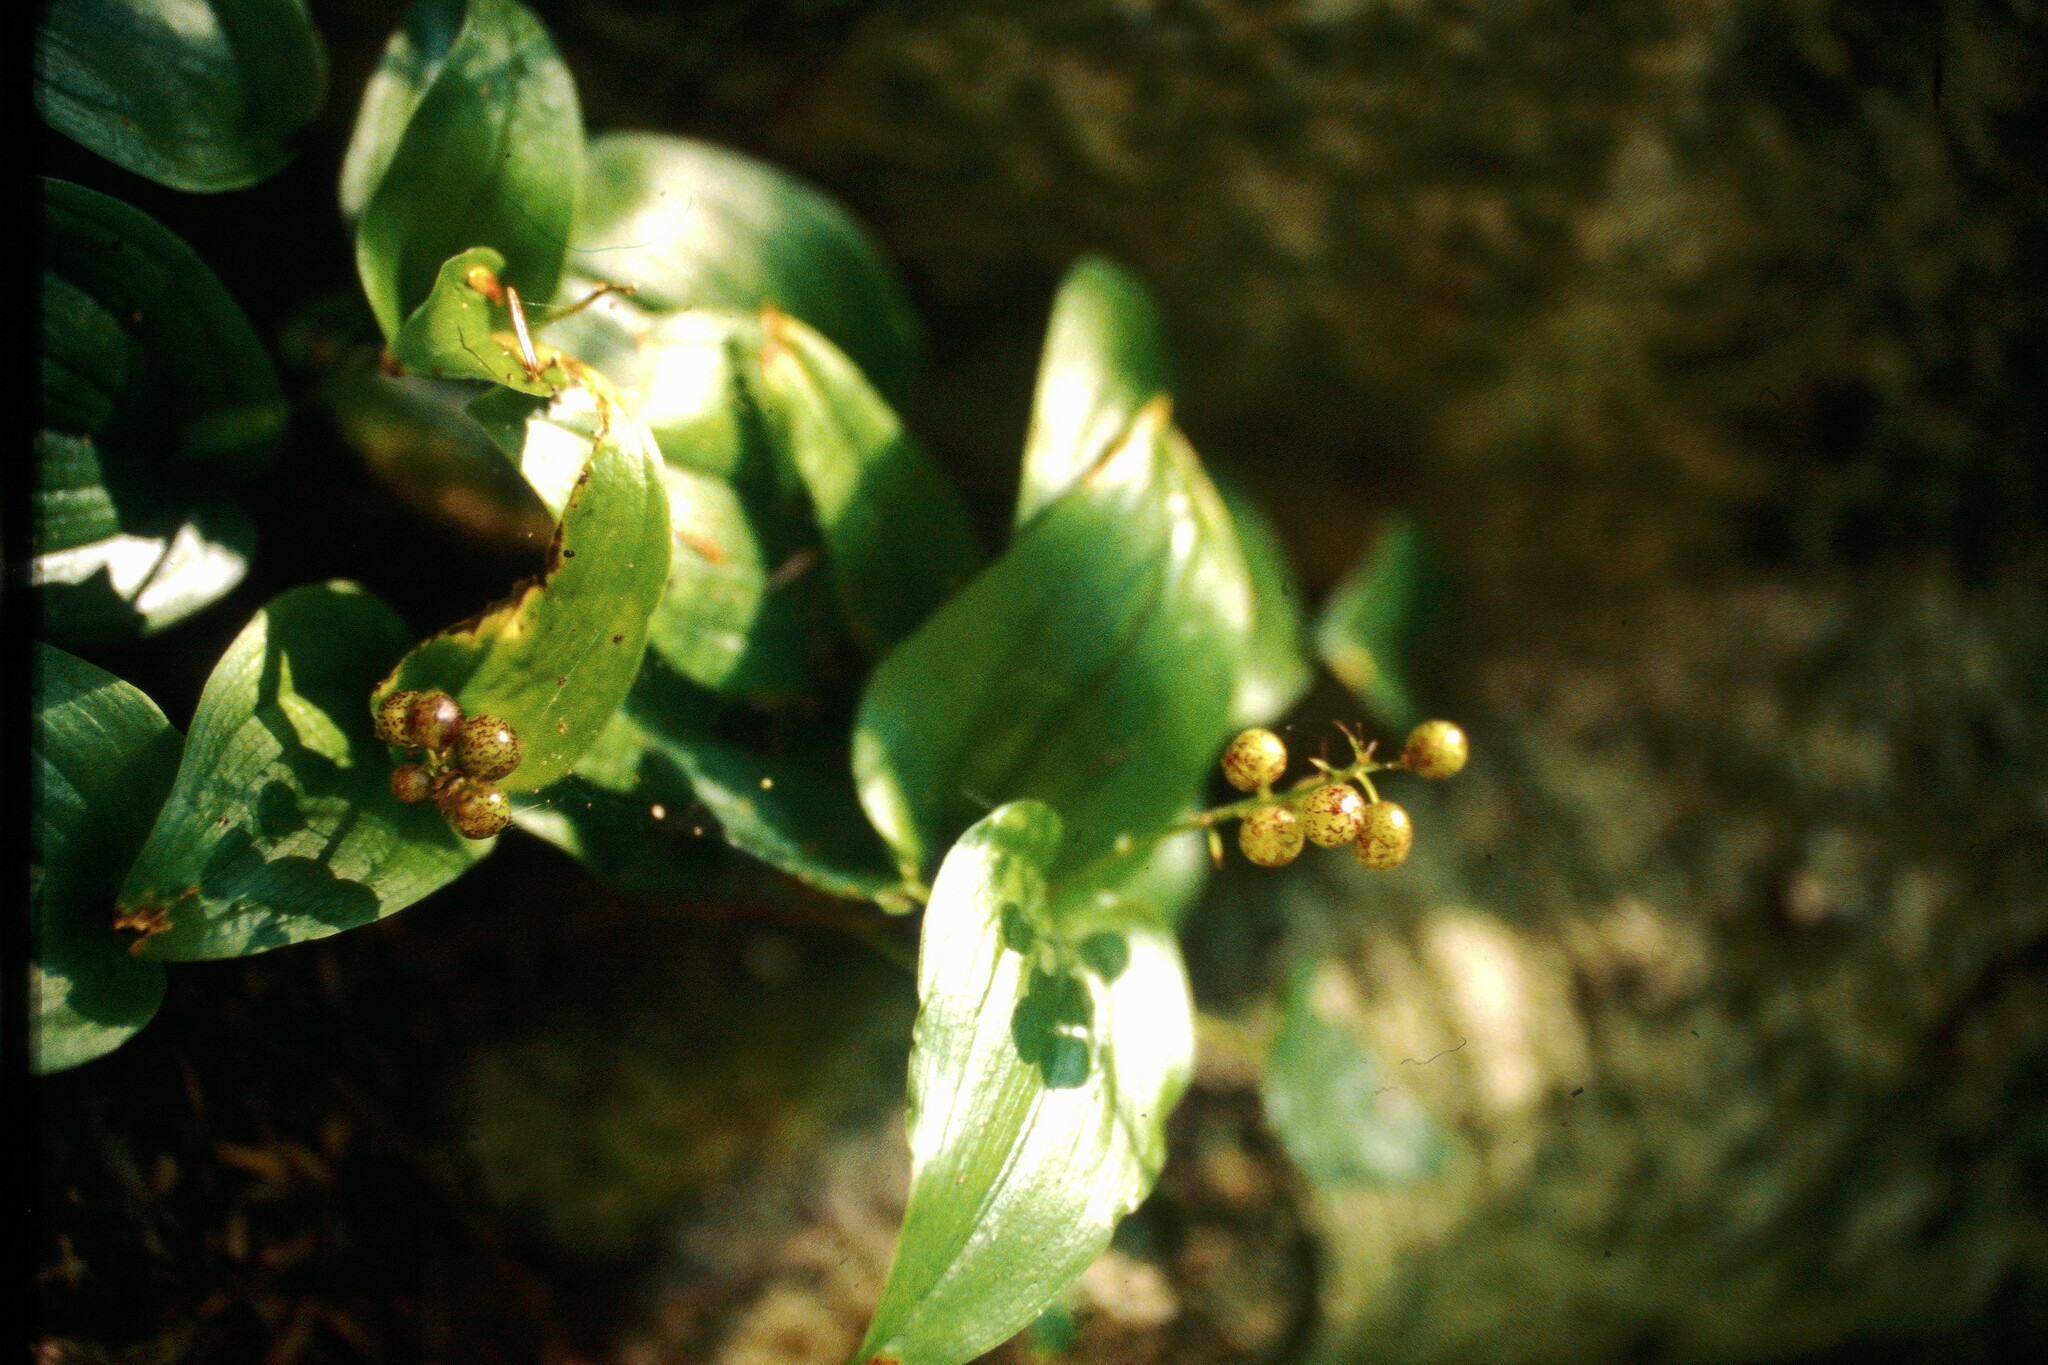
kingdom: Plantae
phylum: Tracheophyta
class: Liliopsida
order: Asparagales
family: Asparagaceae
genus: Maianthemum
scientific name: Maianthemum canadense
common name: False lily-of-the-valley
